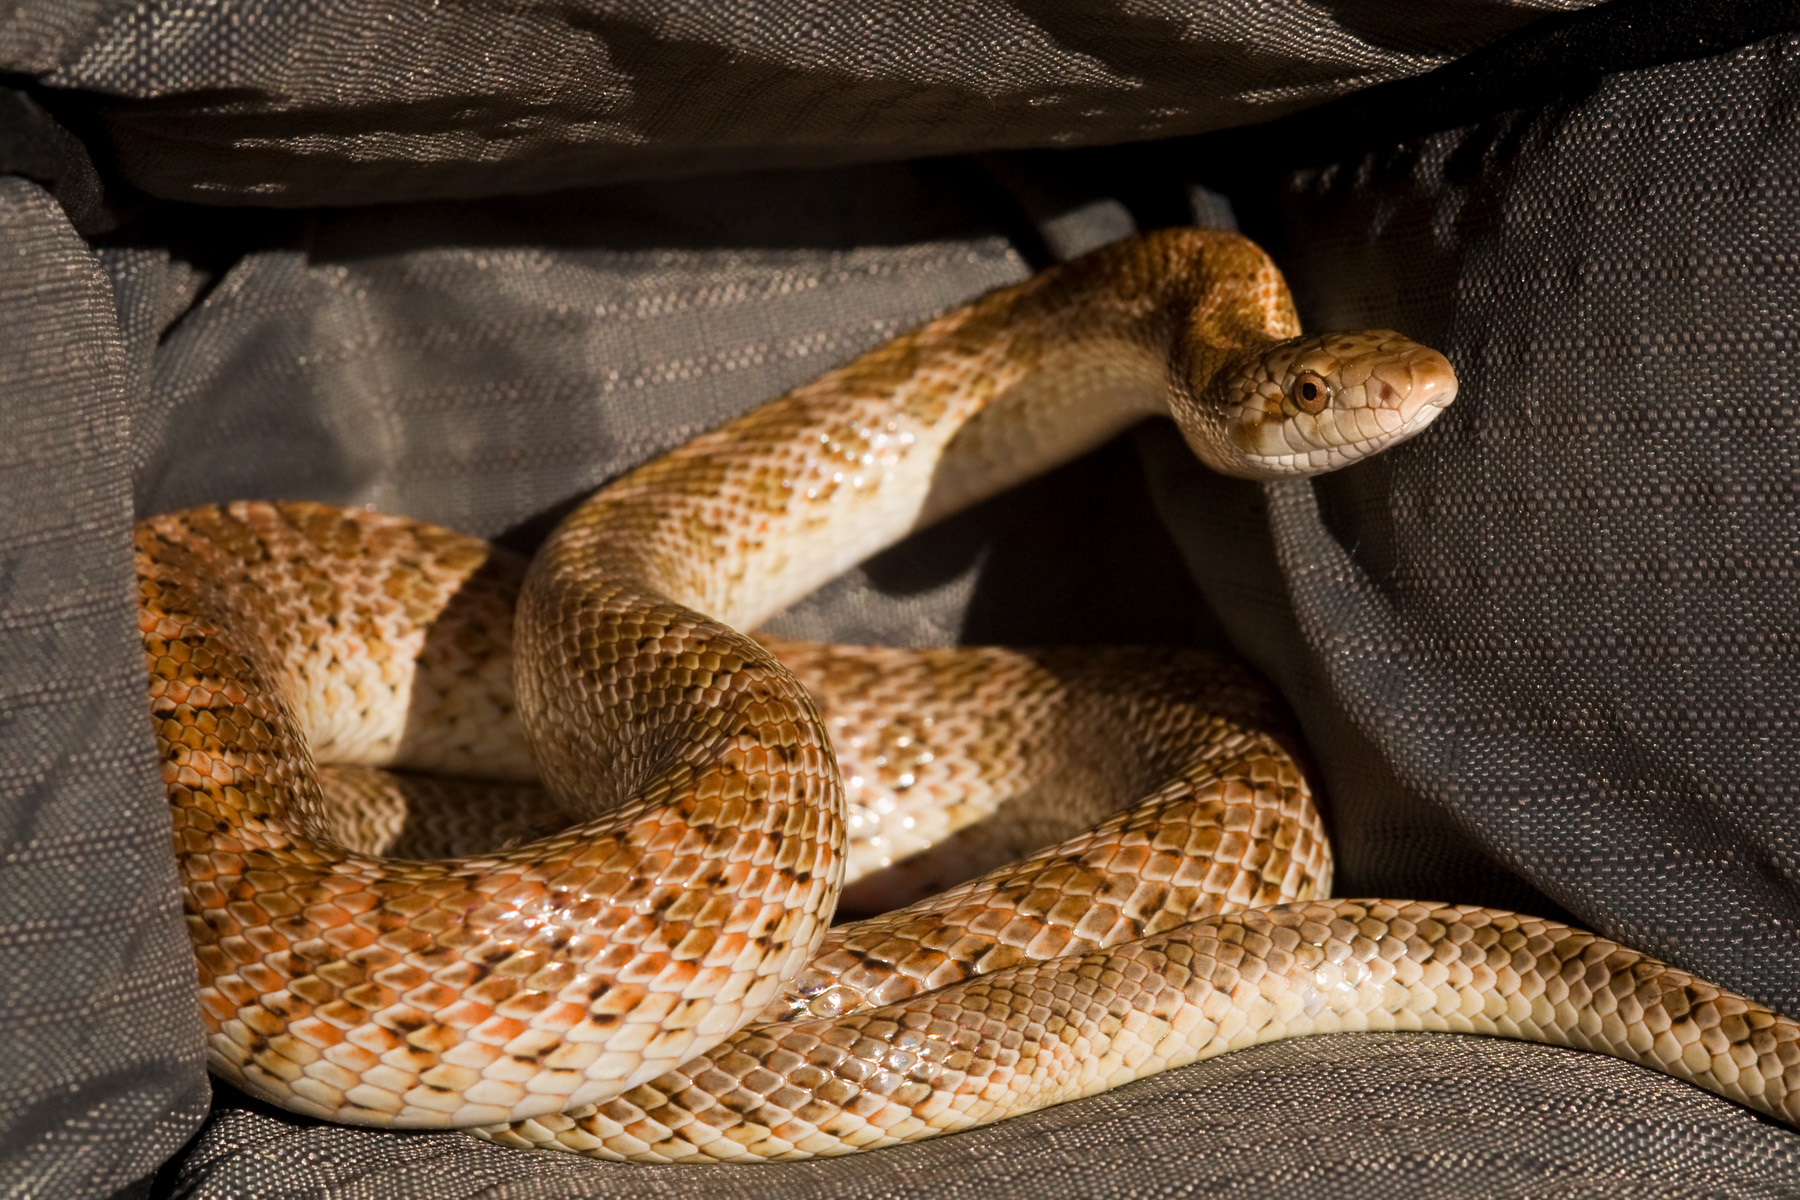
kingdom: Animalia
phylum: Chordata
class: Squamata
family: Colubridae
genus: Arizona
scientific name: Arizona elegans
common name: Glossy snake
